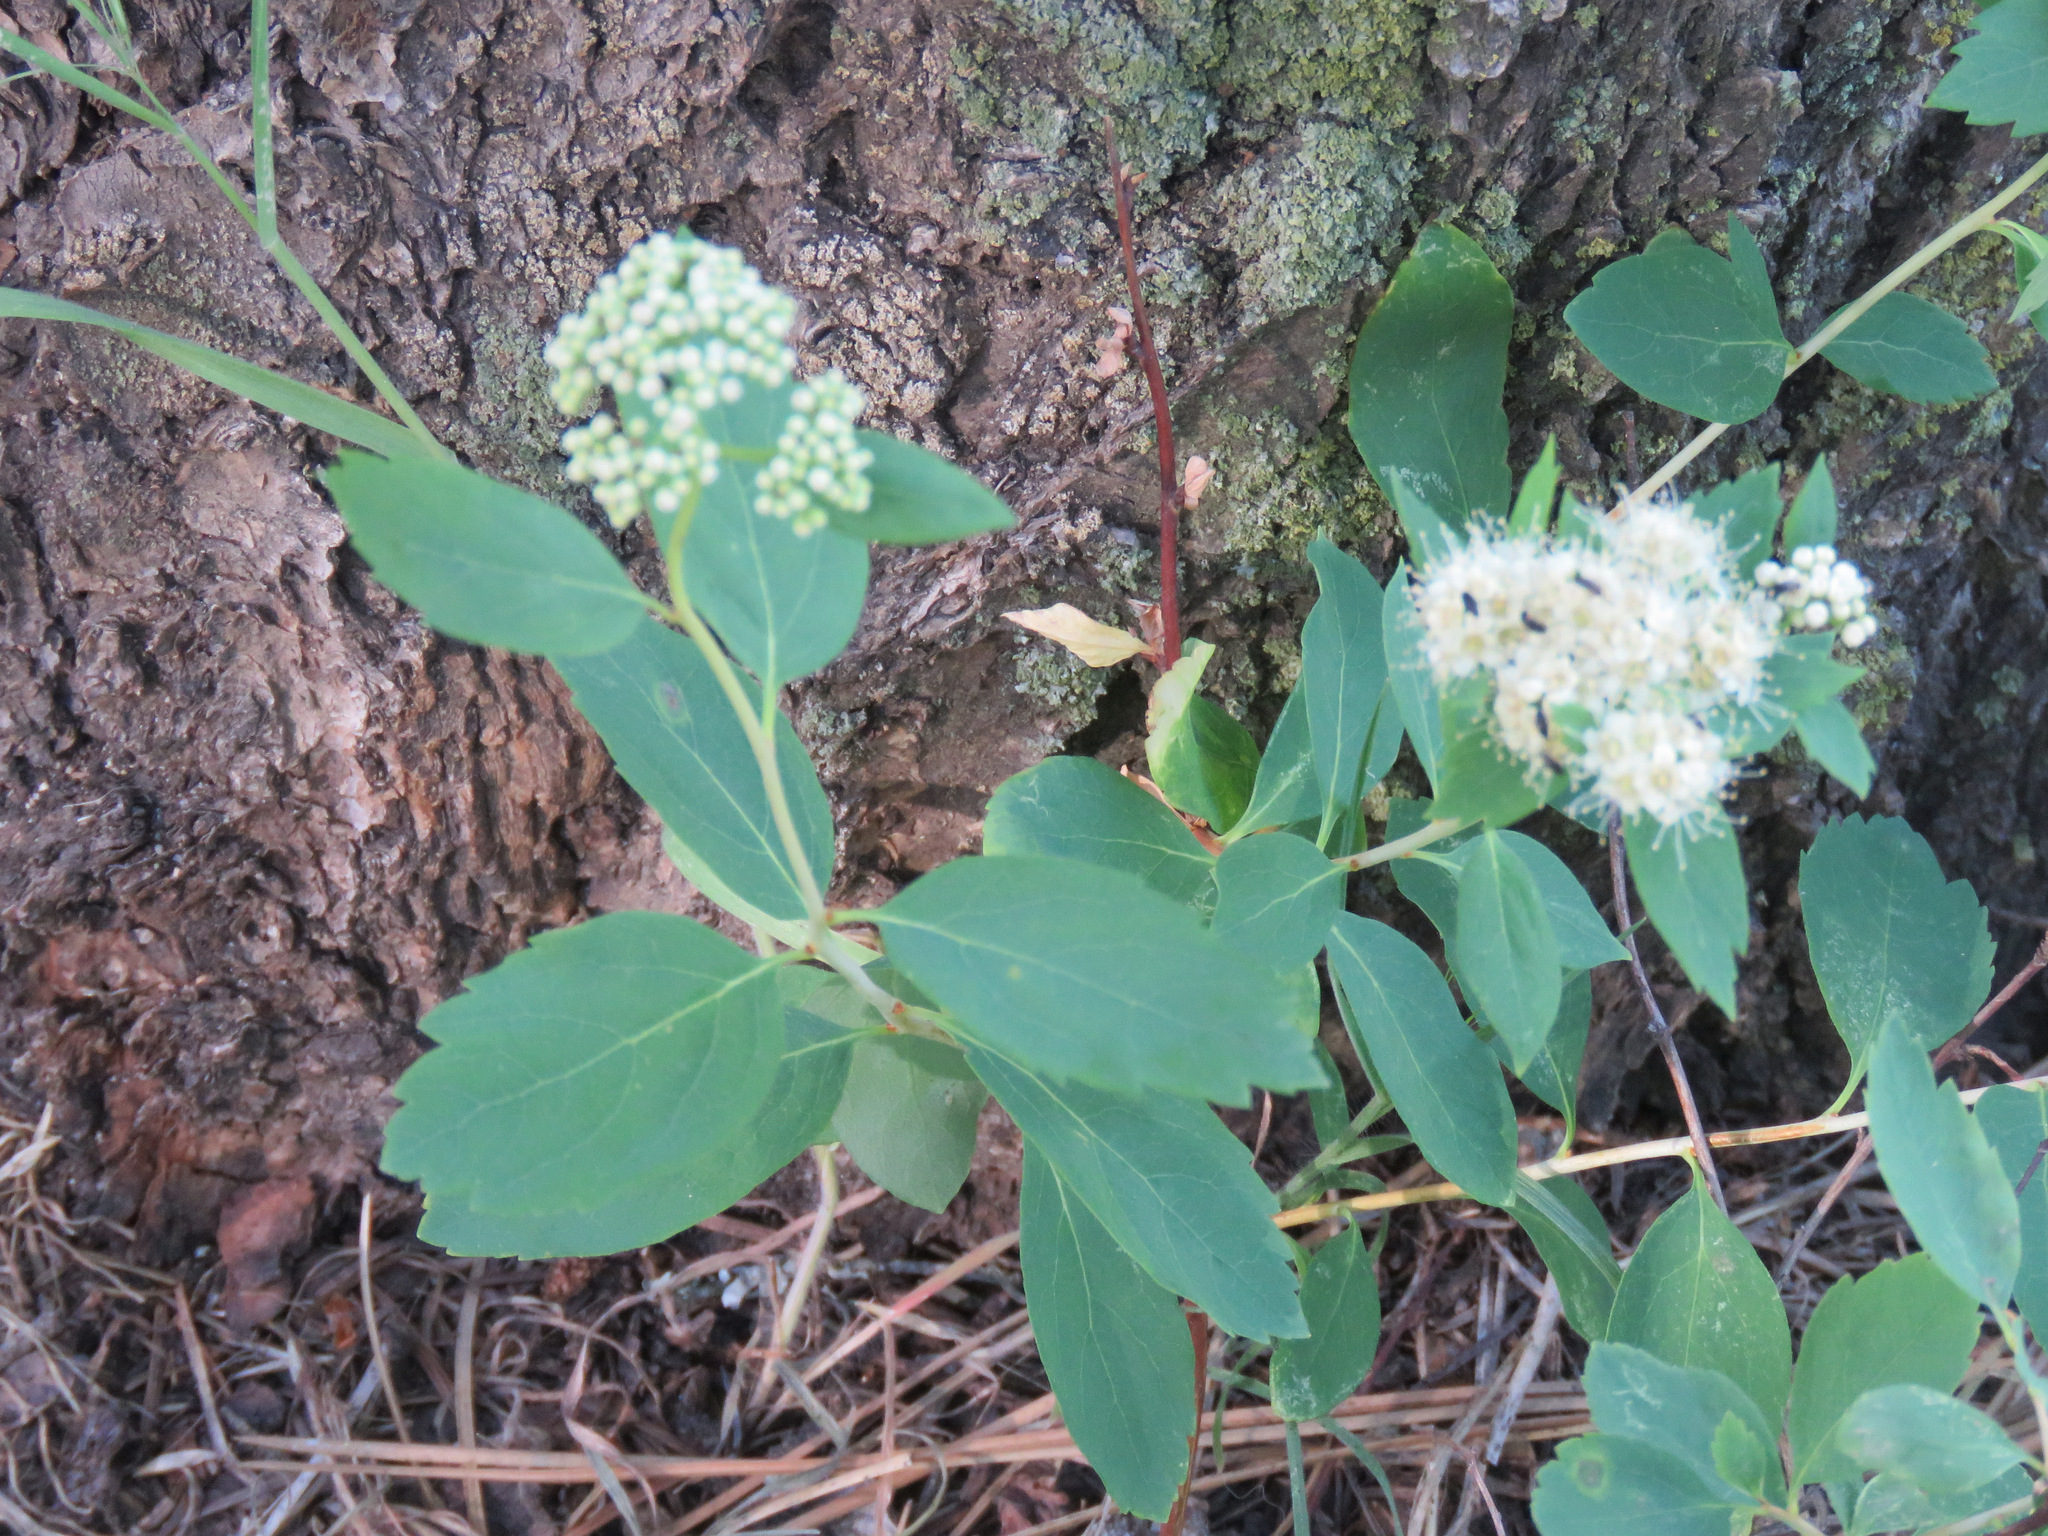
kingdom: Plantae
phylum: Tracheophyta
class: Magnoliopsida
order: Rosales
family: Rosaceae
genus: Spiraea
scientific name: Spiraea lucida
